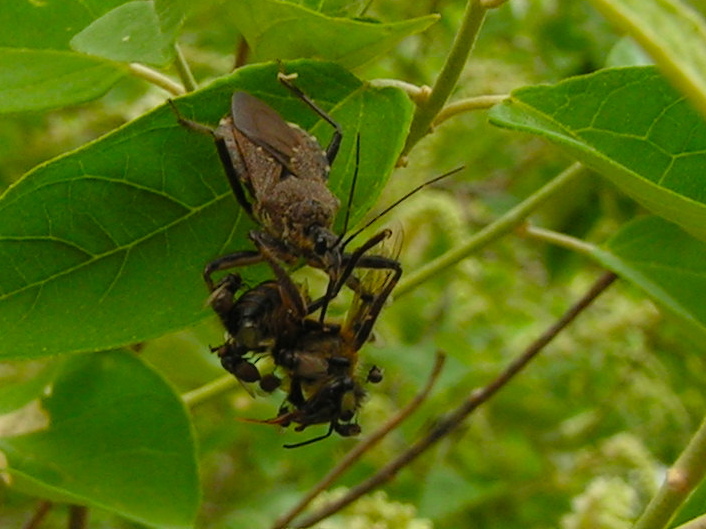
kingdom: Animalia
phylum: Arthropoda
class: Insecta
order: Hemiptera
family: Reduviidae
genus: Apiomerus
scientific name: Apiomerus
